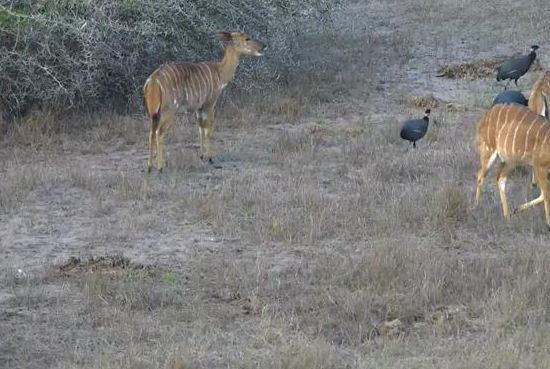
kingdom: Animalia
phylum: Chordata
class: Aves
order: Galliformes
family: Numididae
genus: Guttera
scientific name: Guttera pucherani
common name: Crested guineafowl
